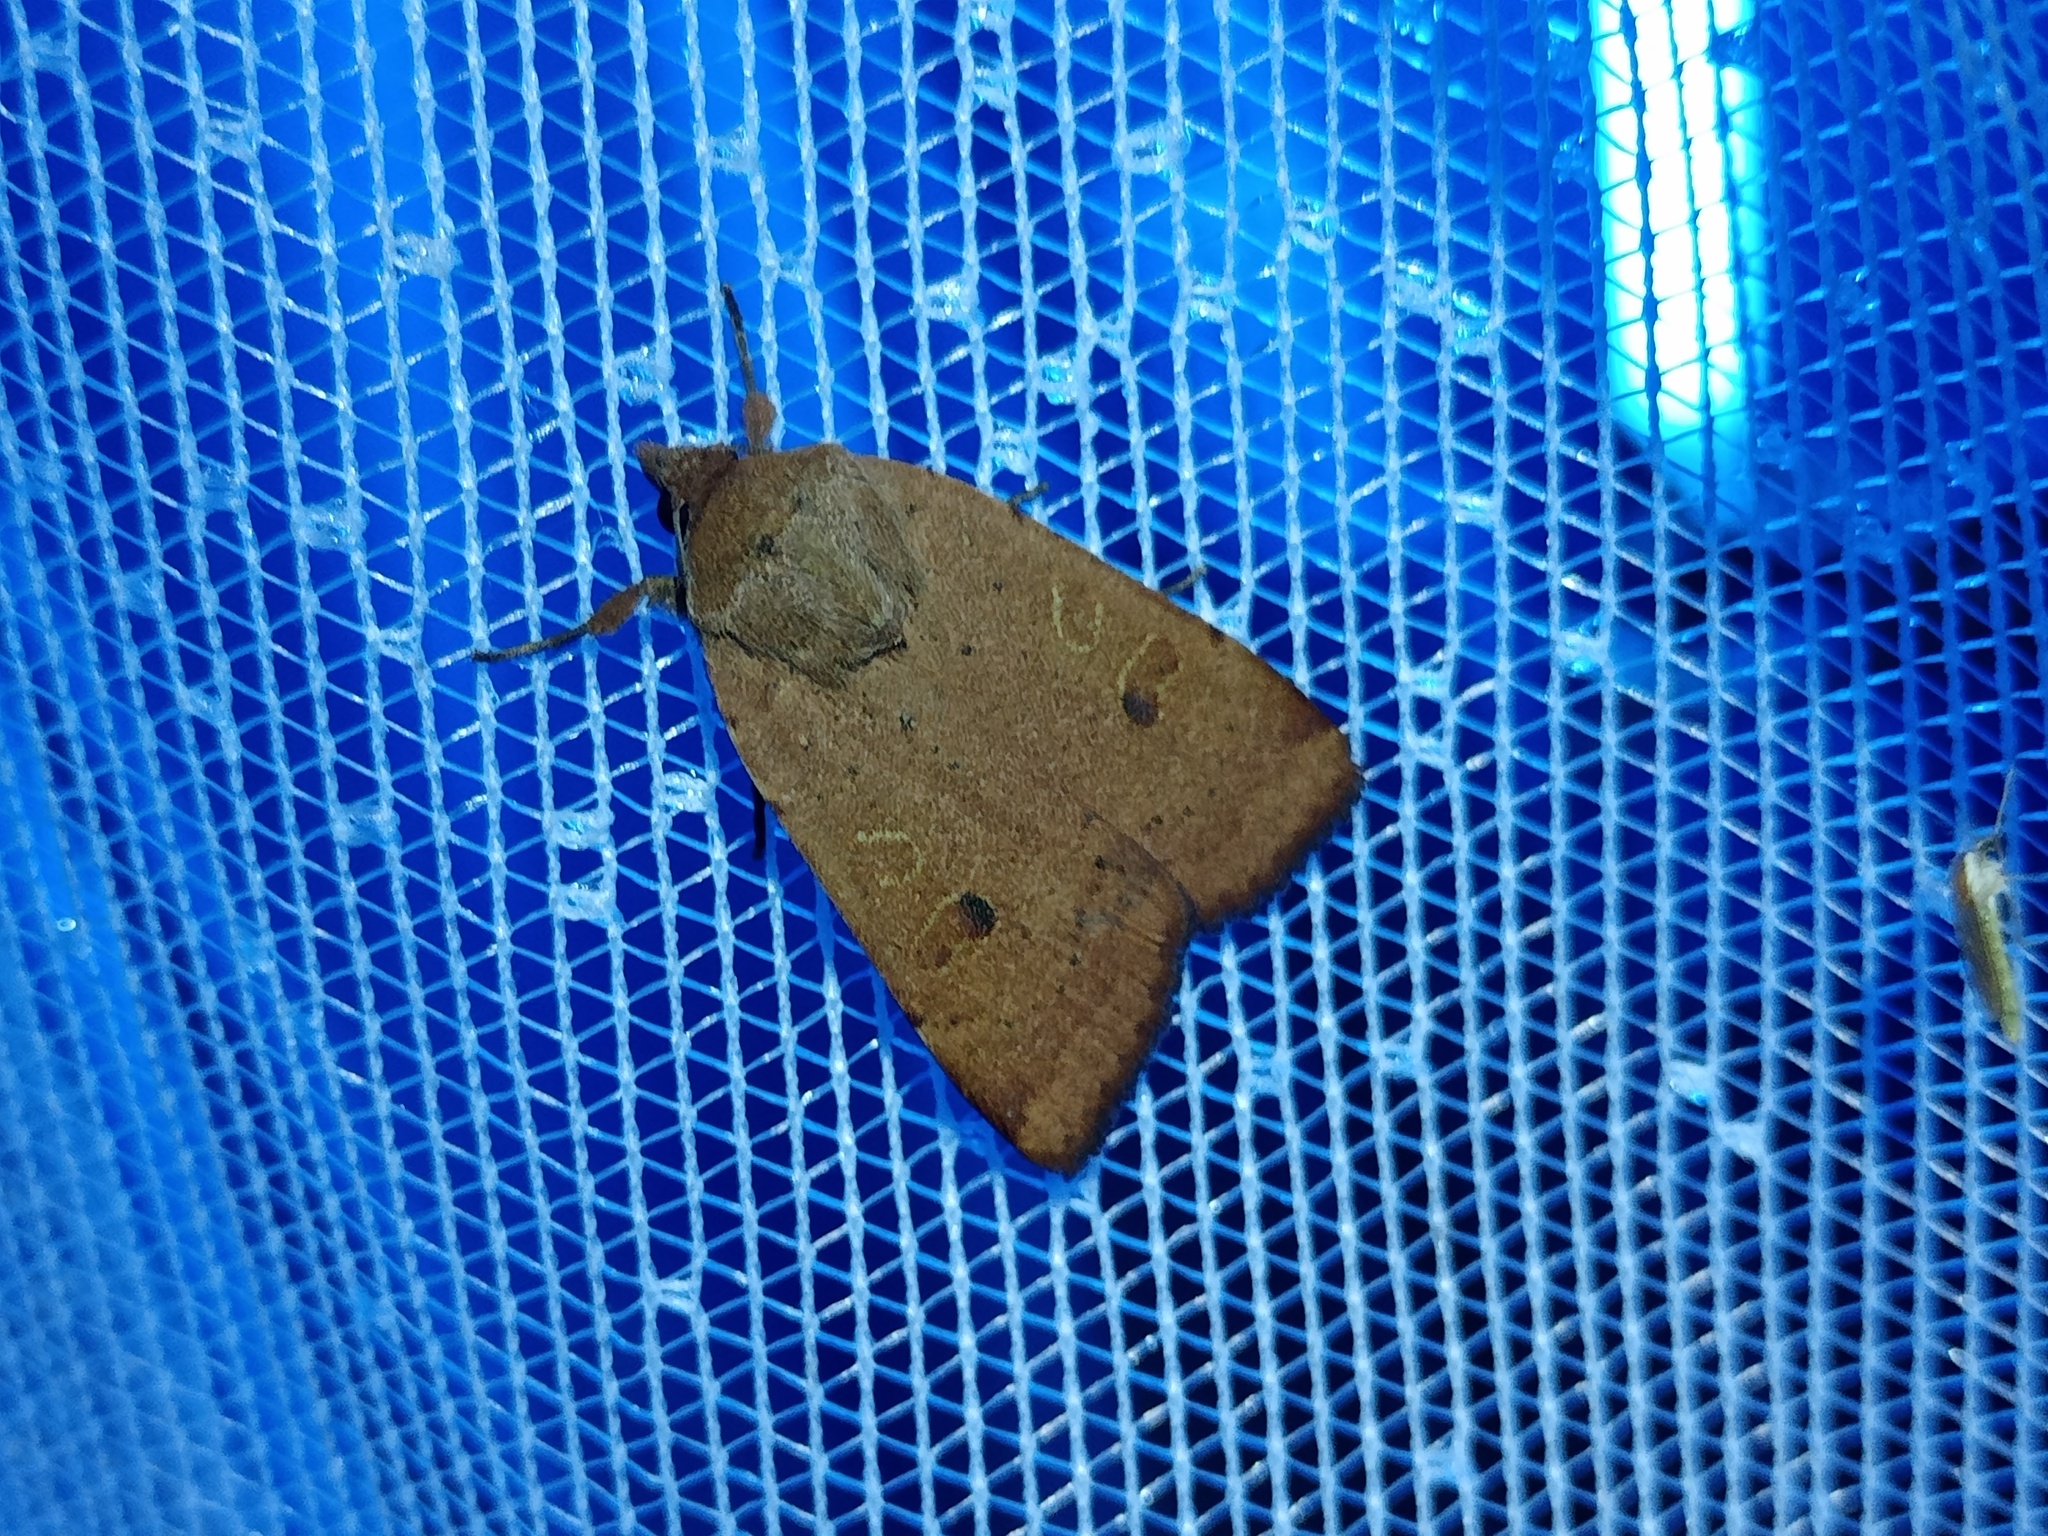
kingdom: Animalia
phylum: Arthropoda
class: Insecta
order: Lepidoptera
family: Noctuidae
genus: Noctua
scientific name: Noctua comes
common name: Lesser yellow underwing
